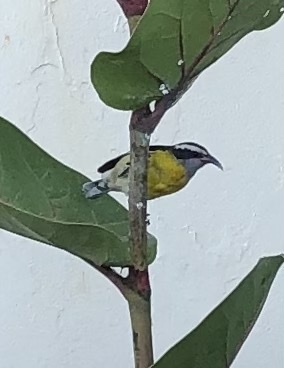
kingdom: Animalia
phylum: Chordata
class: Aves
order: Passeriformes
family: Thraupidae
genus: Coereba
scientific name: Coereba flaveola
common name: Bananaquit
